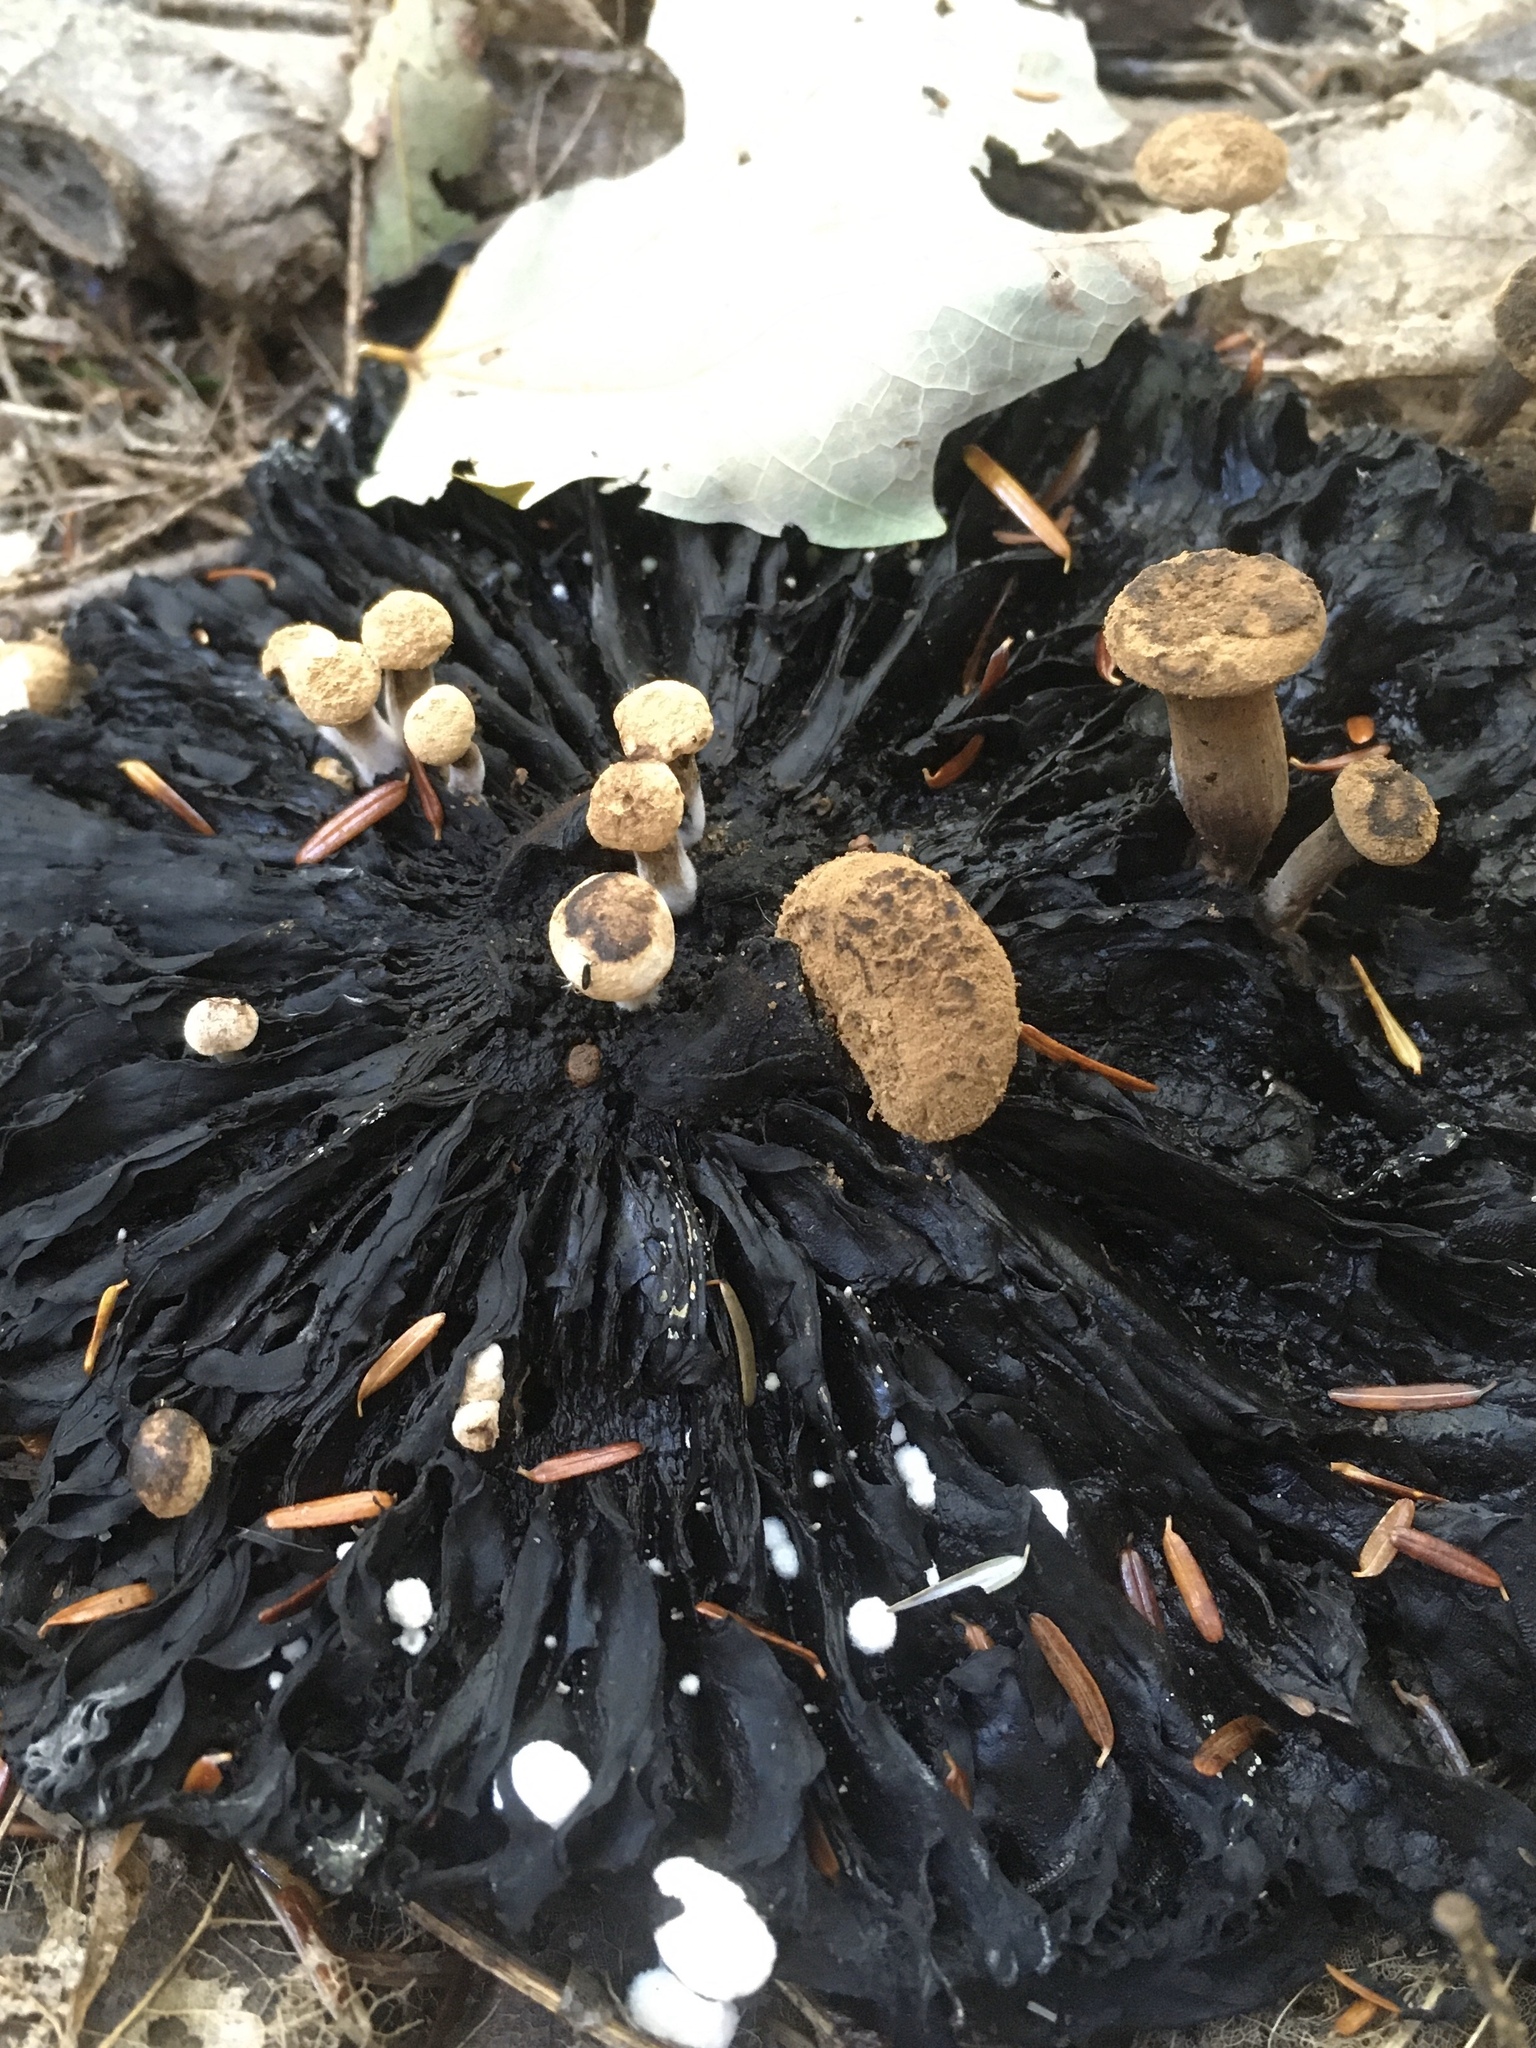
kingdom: Fungi
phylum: Basidiomycota
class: Agaricomycetes
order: Agaricales
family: Lyophyllaceae
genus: Asterophora
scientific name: Asterophora lycoperdoides
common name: Pick-a-back toadstool
